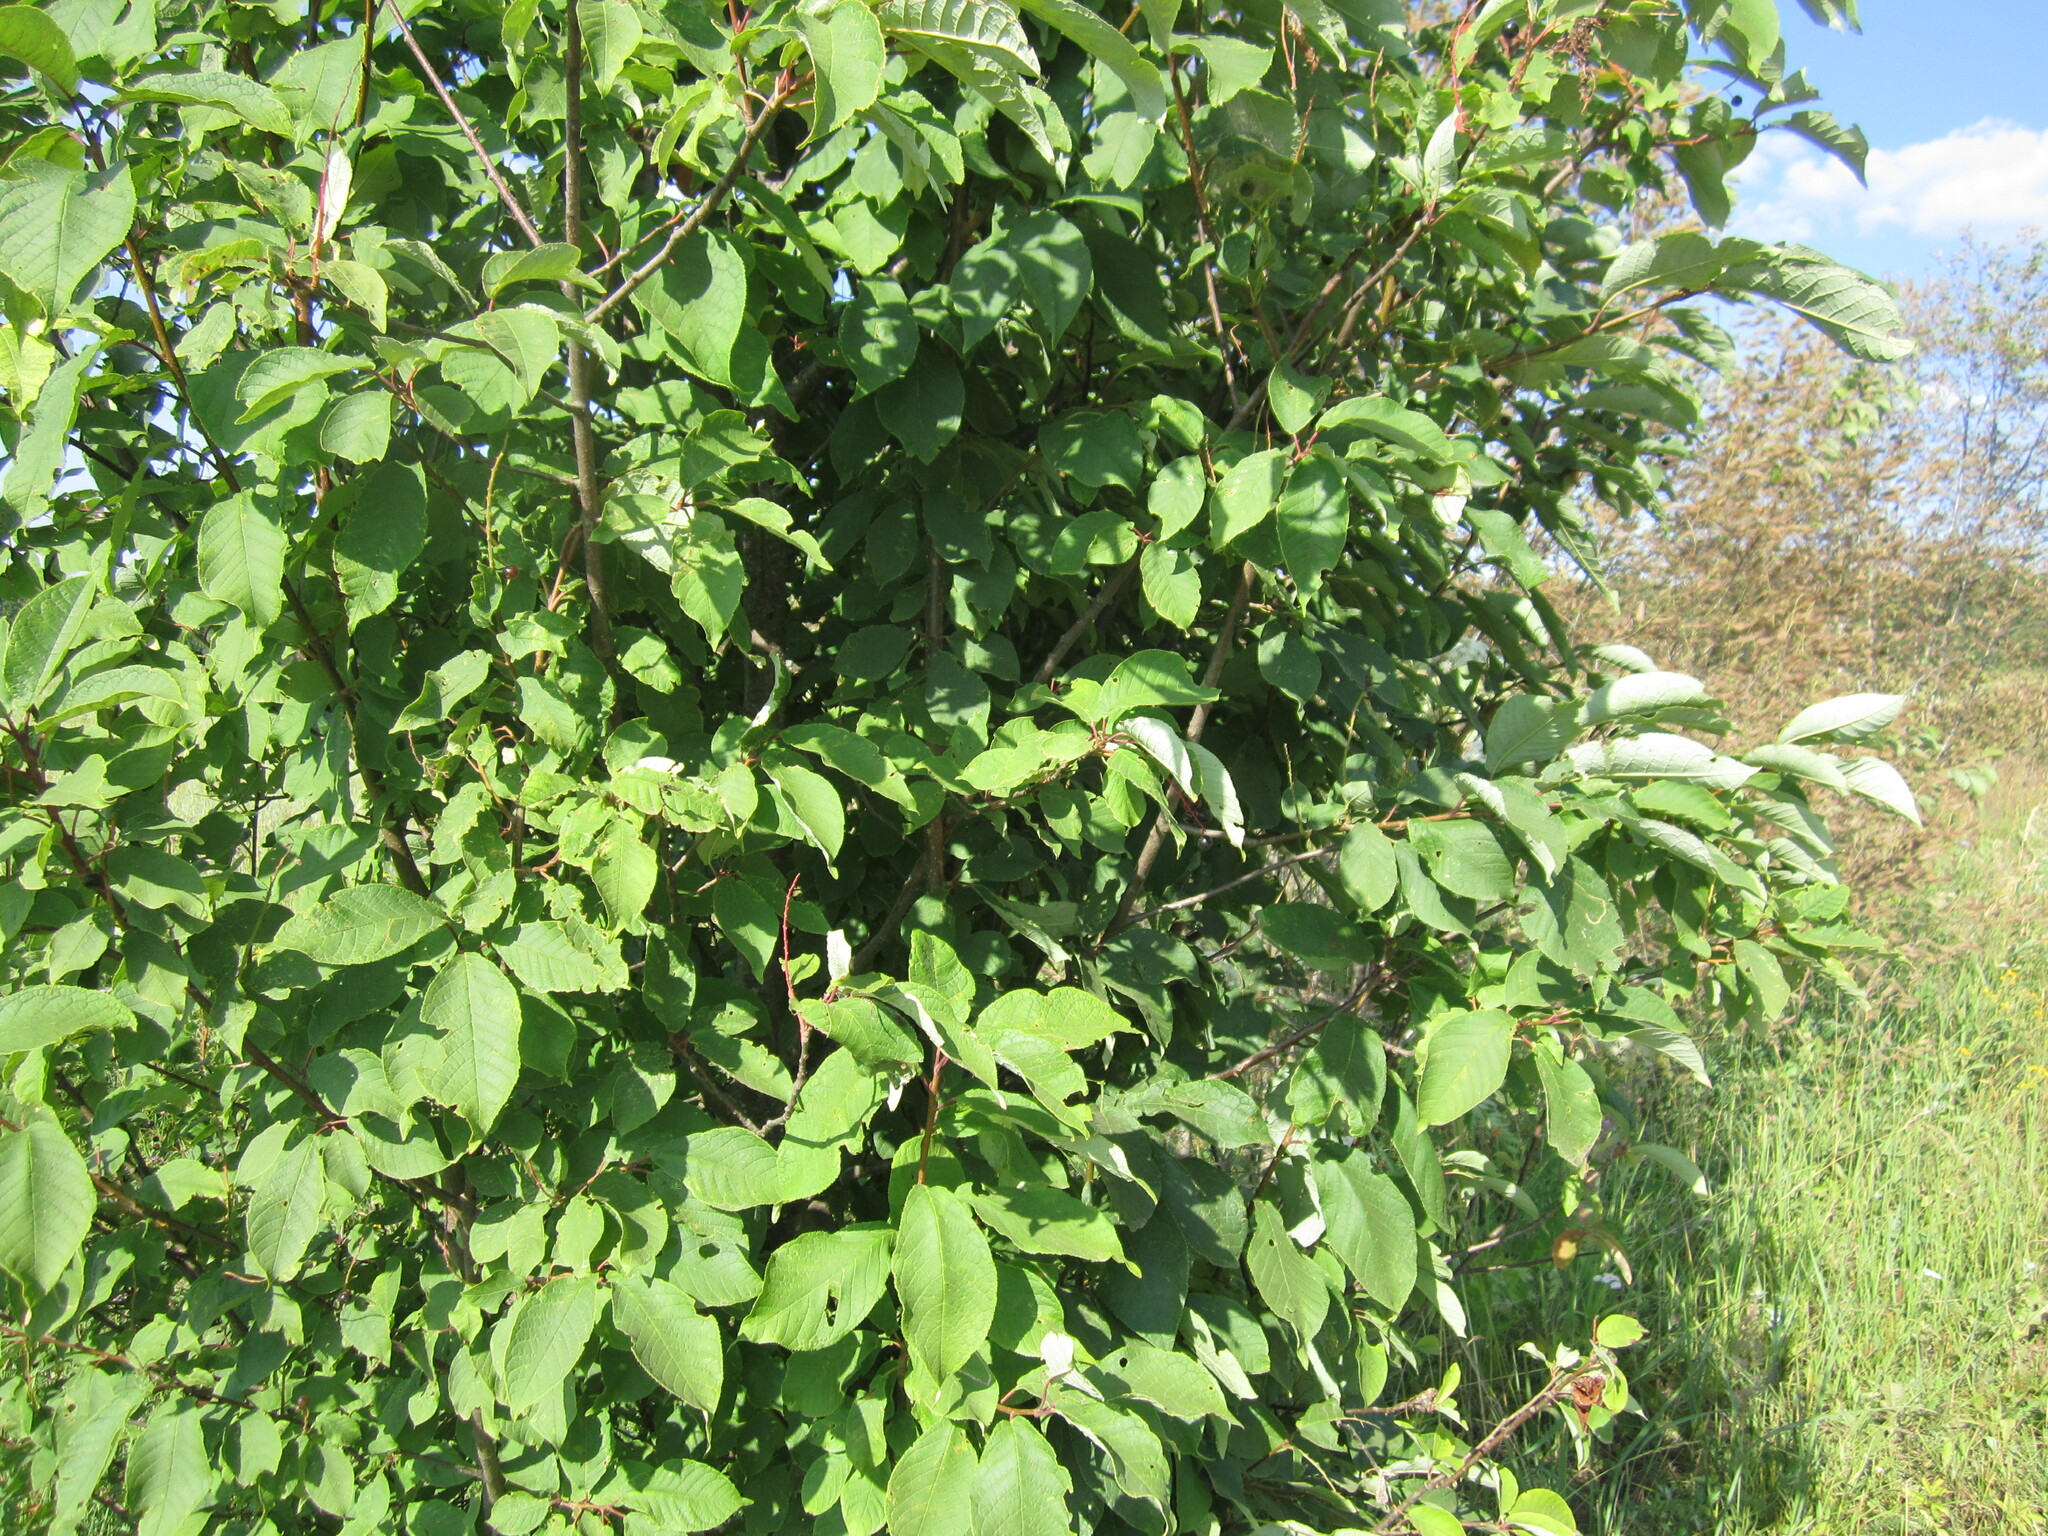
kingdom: Plantae
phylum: Tracheophyta
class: Magnoliopsida
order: Rosales
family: Rosaceae
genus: Prunus
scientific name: Prunus padus
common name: Bird cherry
